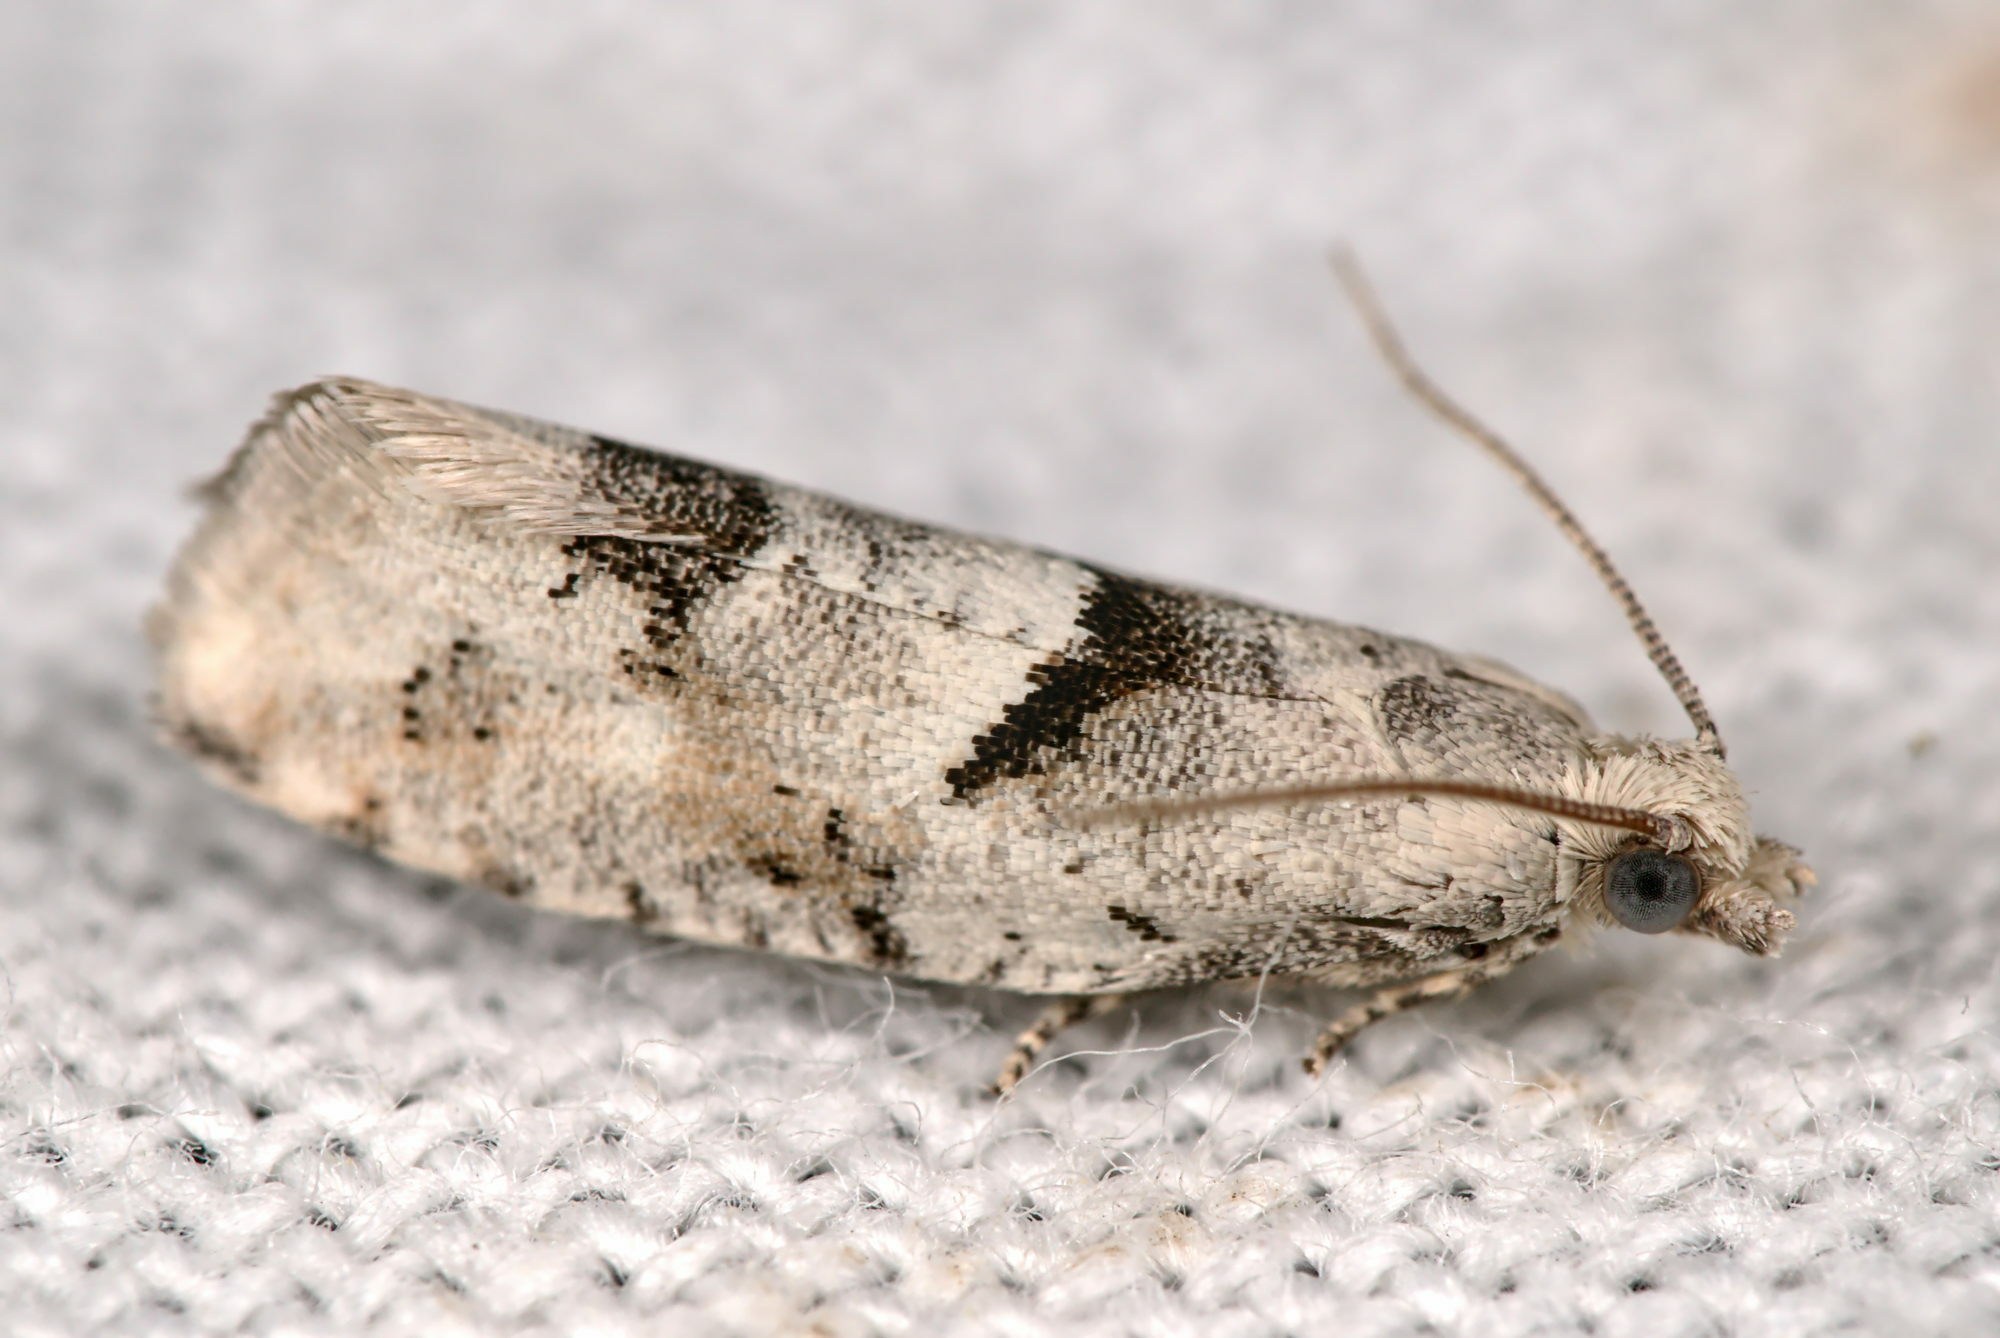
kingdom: Animalia
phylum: Arthropoda
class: Insecta
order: Lepidoptera
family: Tortricidae
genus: Epinotia
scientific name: Epinotia bilunana
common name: Crescent bell
